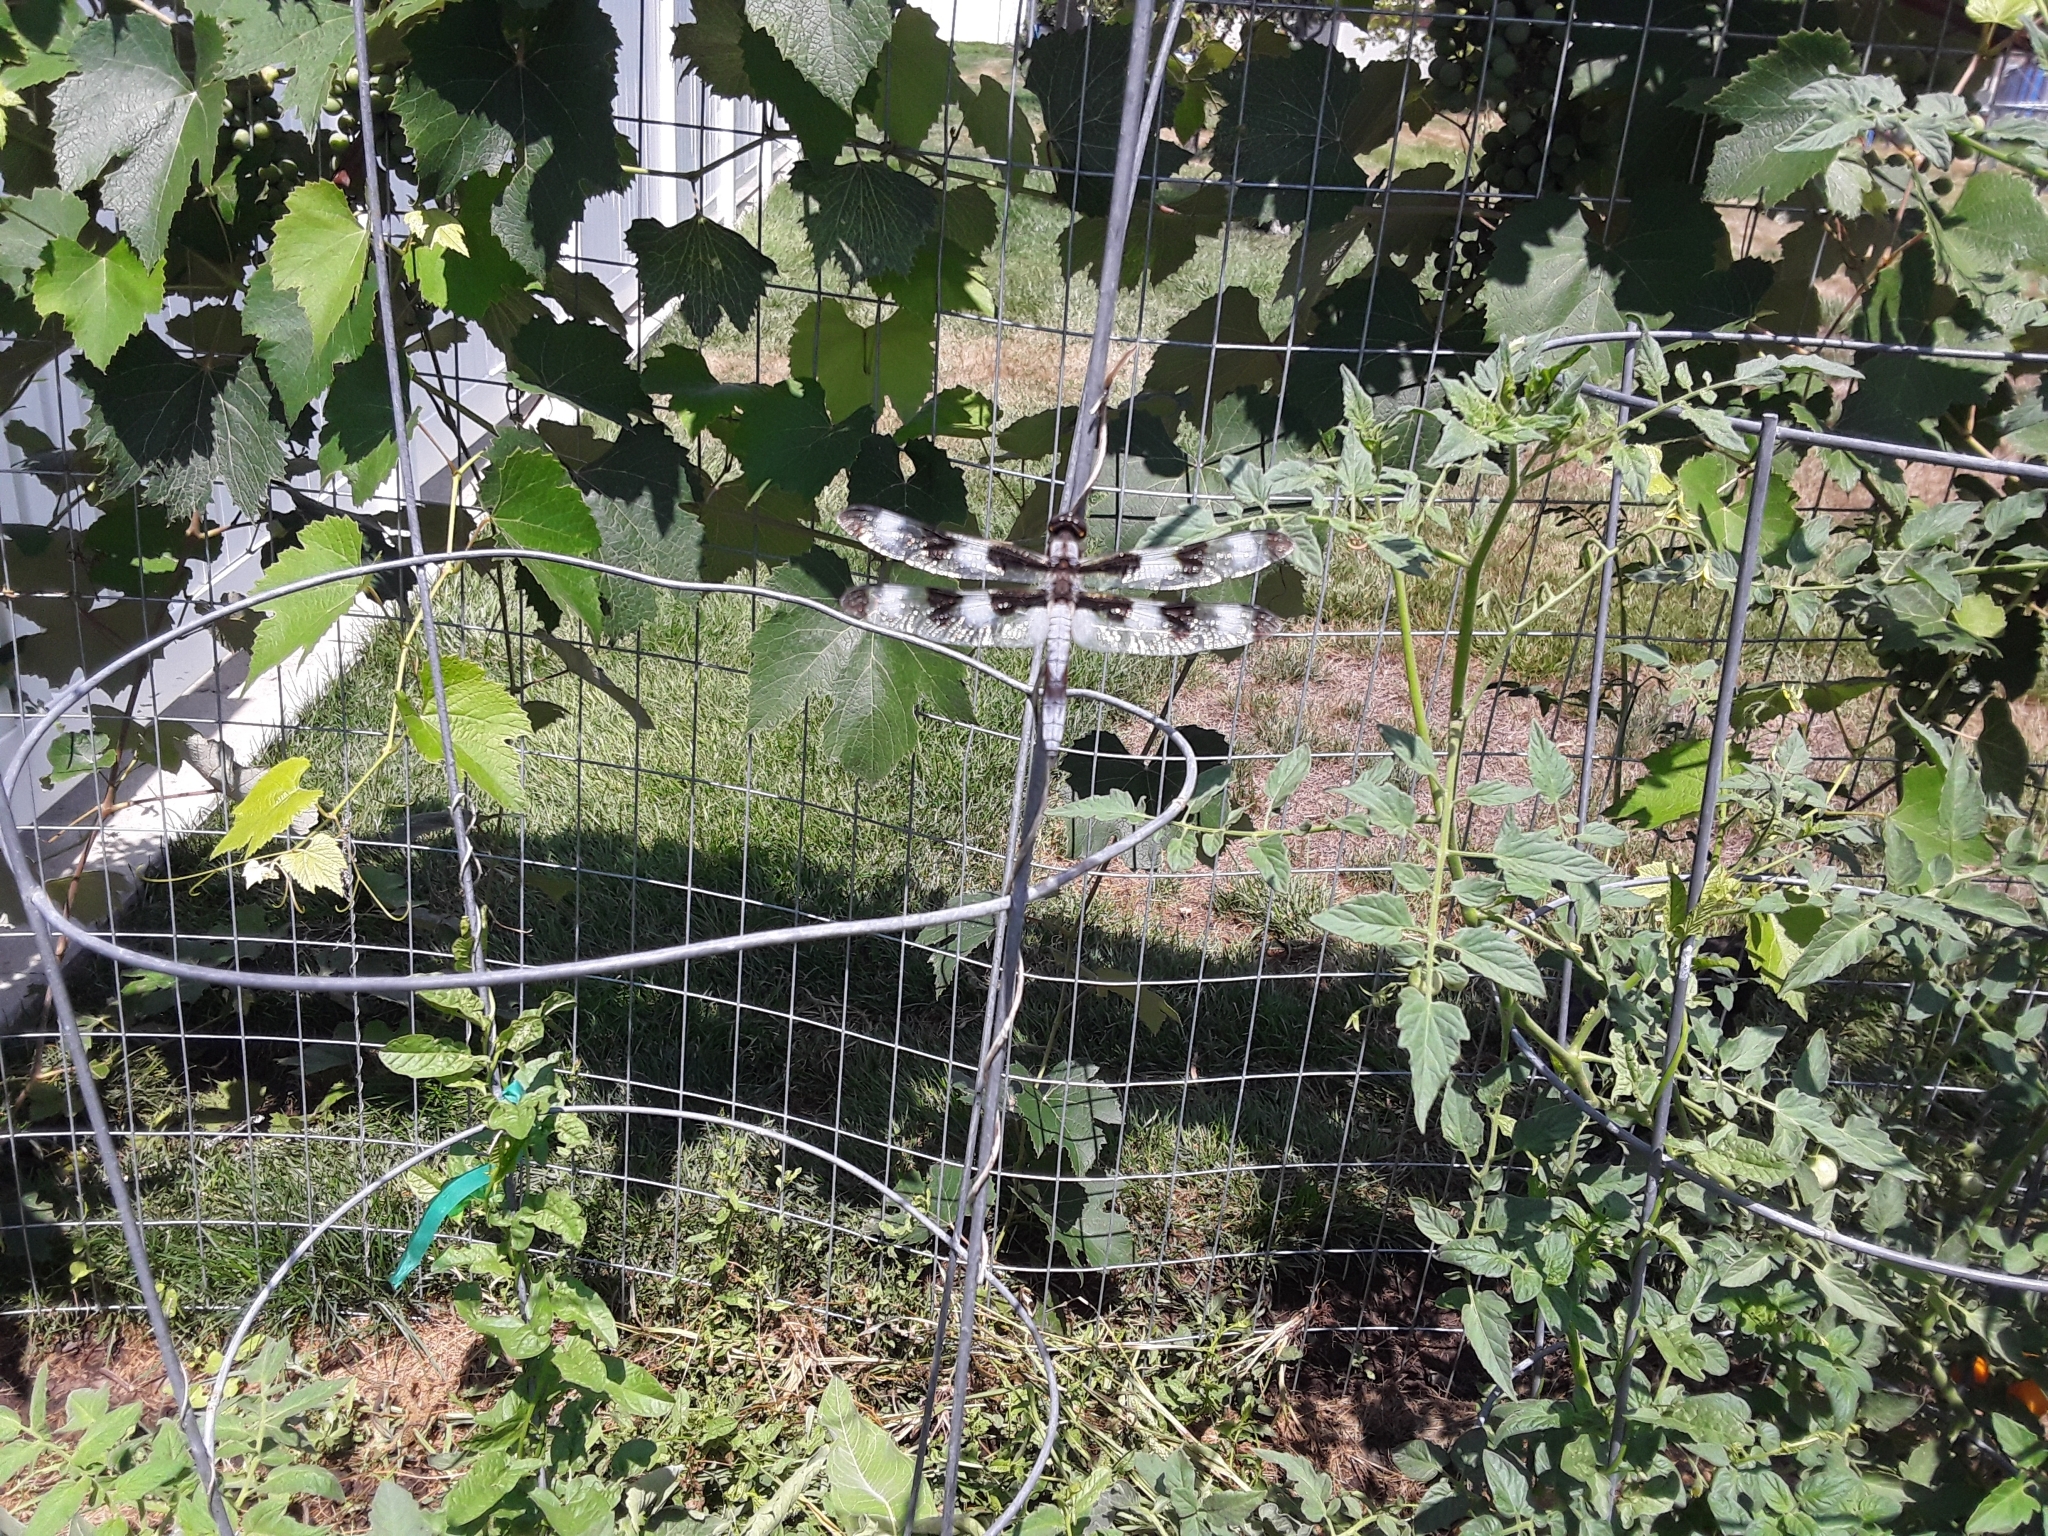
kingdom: Animalia
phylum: Arthropoda
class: Insecta
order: Odonata
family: Libellulidae
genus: Libellula
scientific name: Libellula pulchella
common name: Twelve-spotted skimmer
